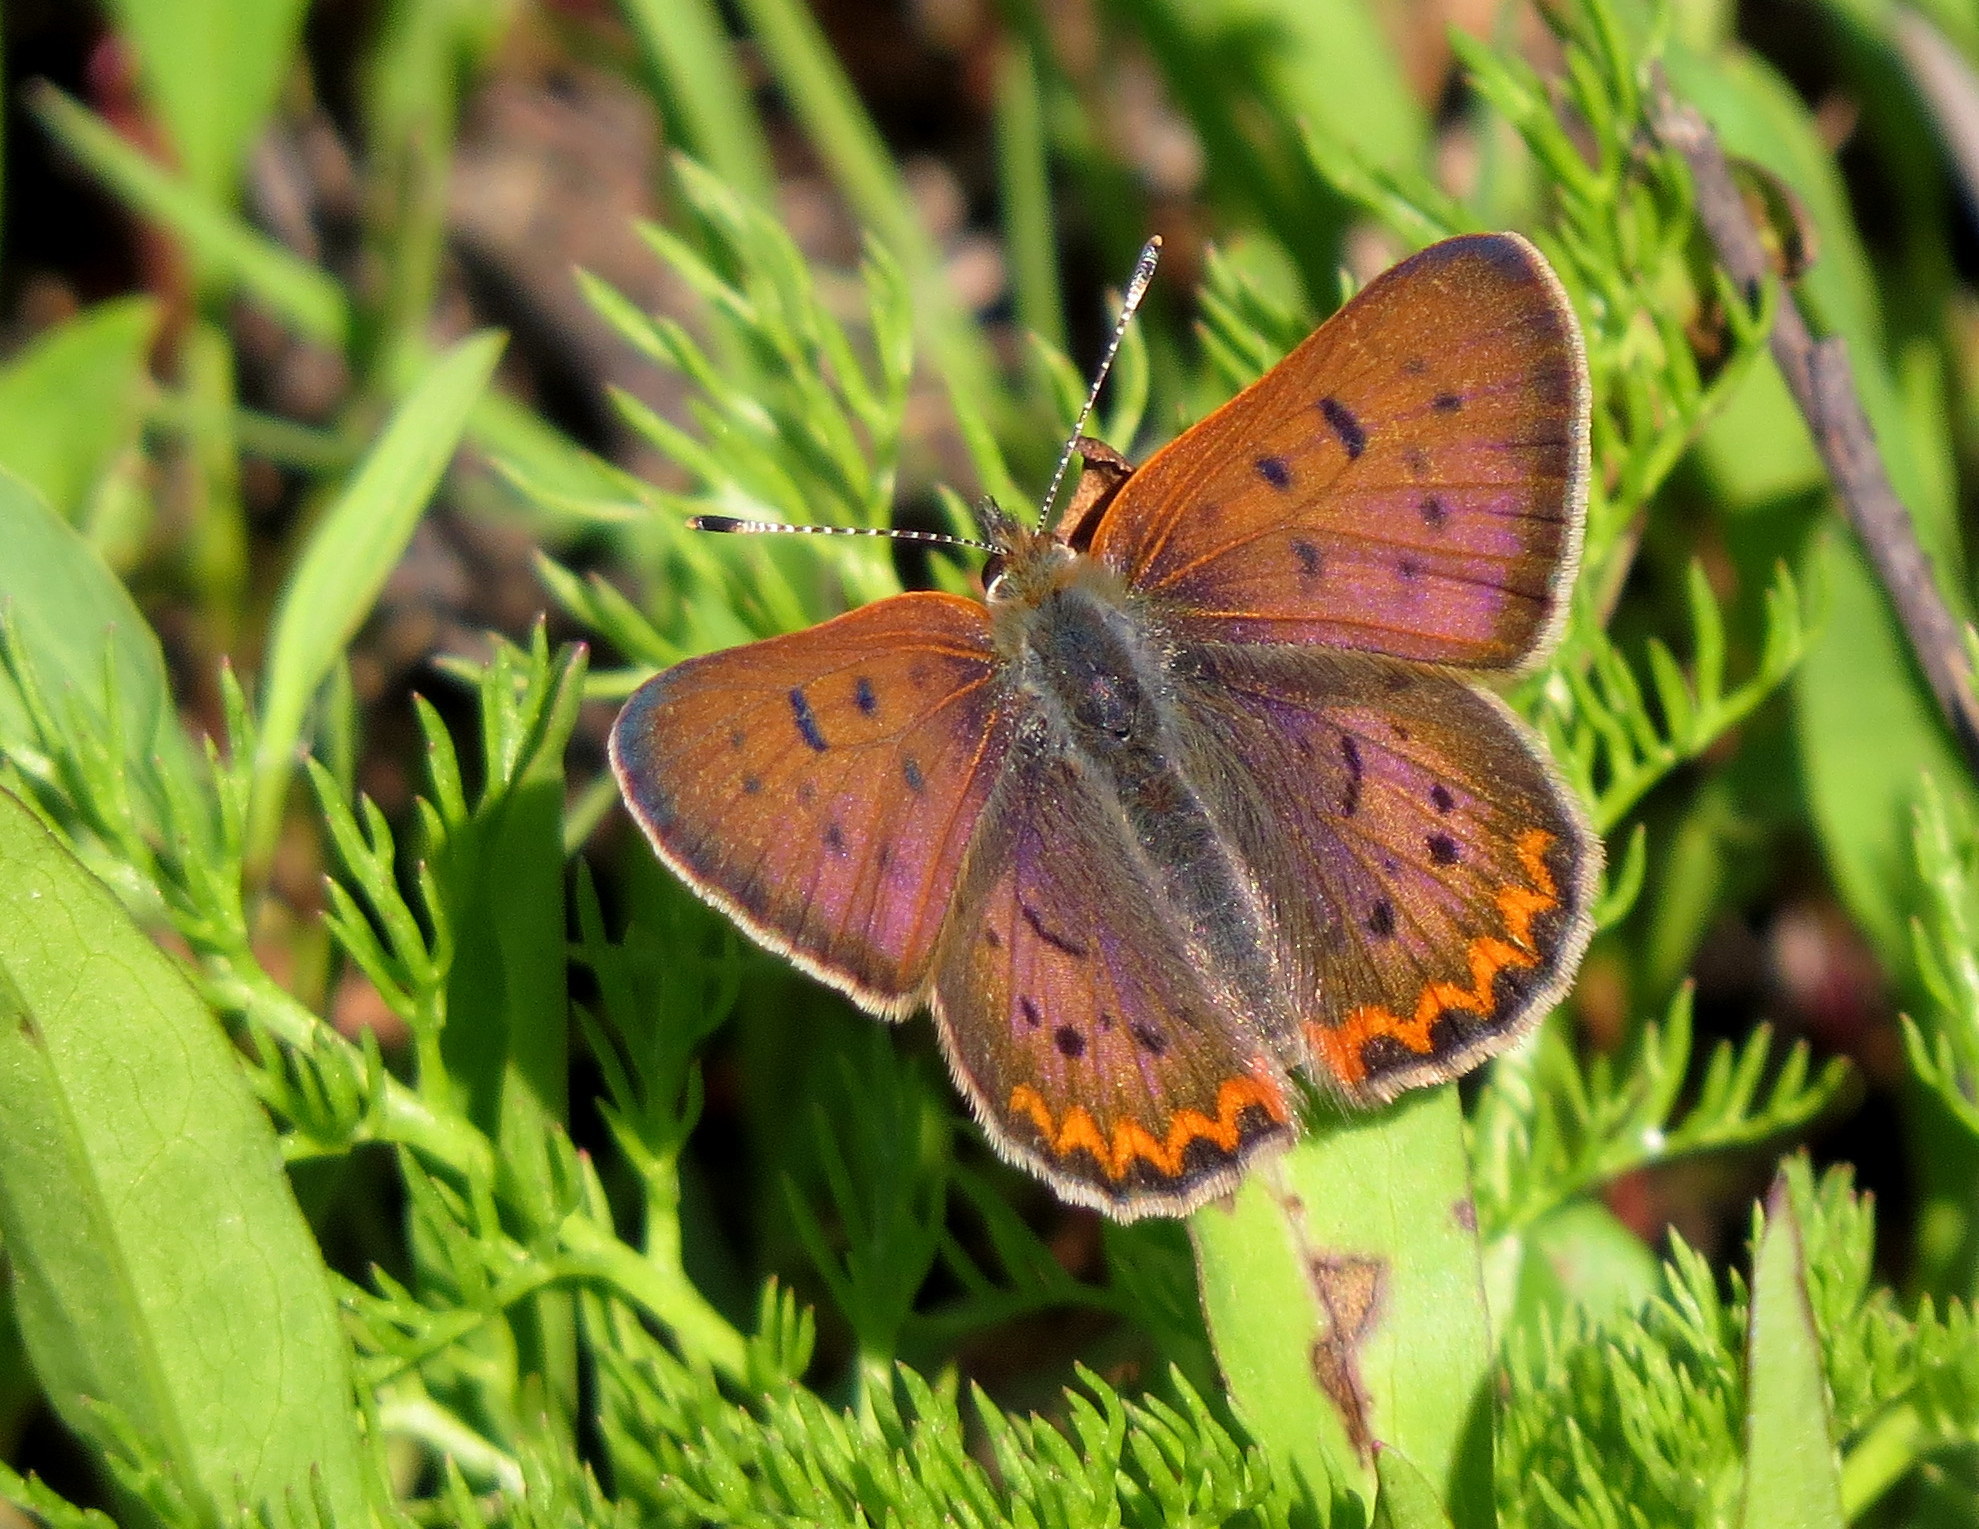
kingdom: Animalia
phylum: Arthropoda
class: Insecta
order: Lepidoptera
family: Lycaenidae
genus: Tharsalea
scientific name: Tharsalea helloides
